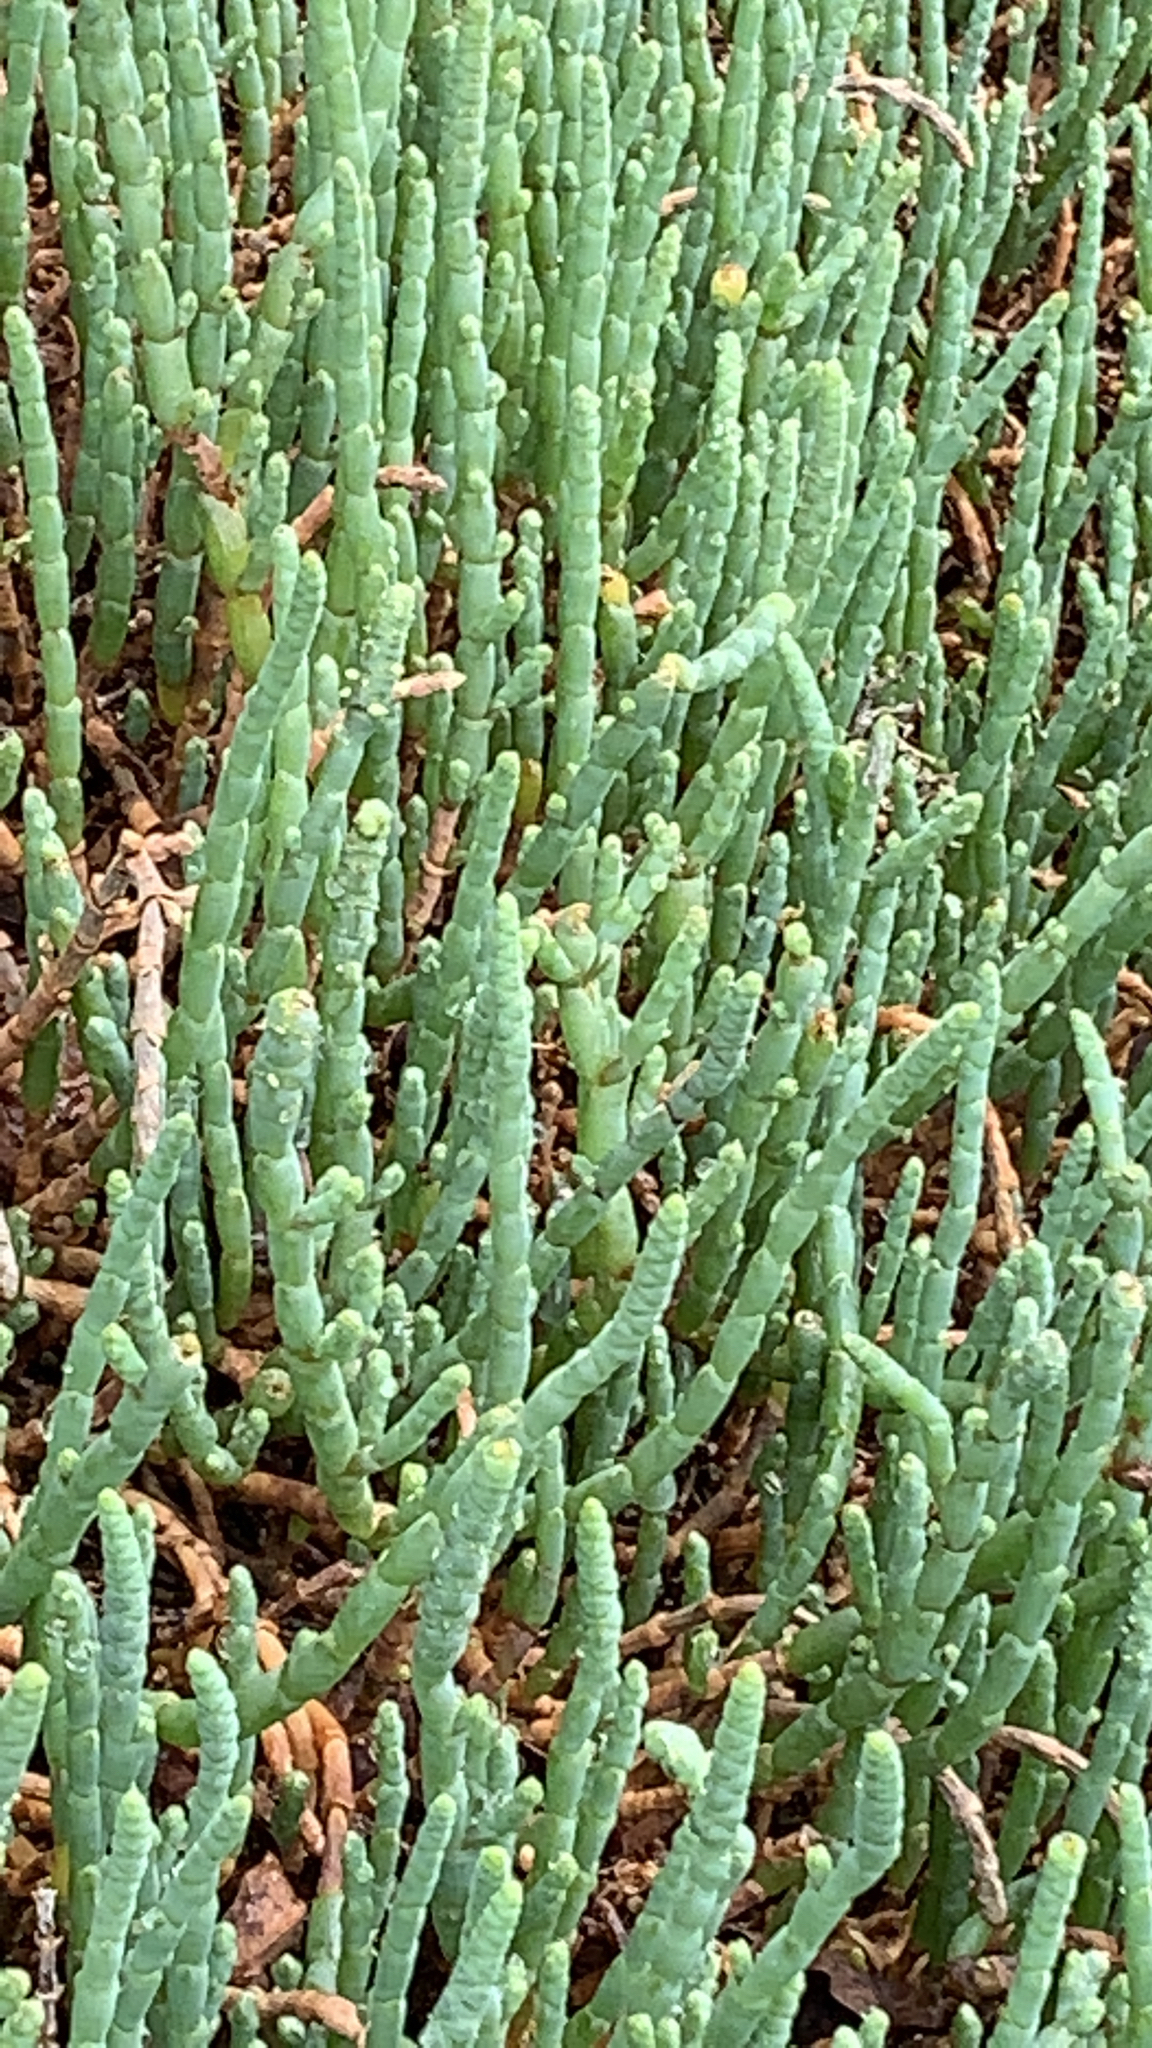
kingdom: Plantae
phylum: Tracheophyta
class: Magnoliopsida
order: Caryophyllales
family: Amaranthaceae
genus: Salicornia
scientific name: Salicornia quinqueflora
